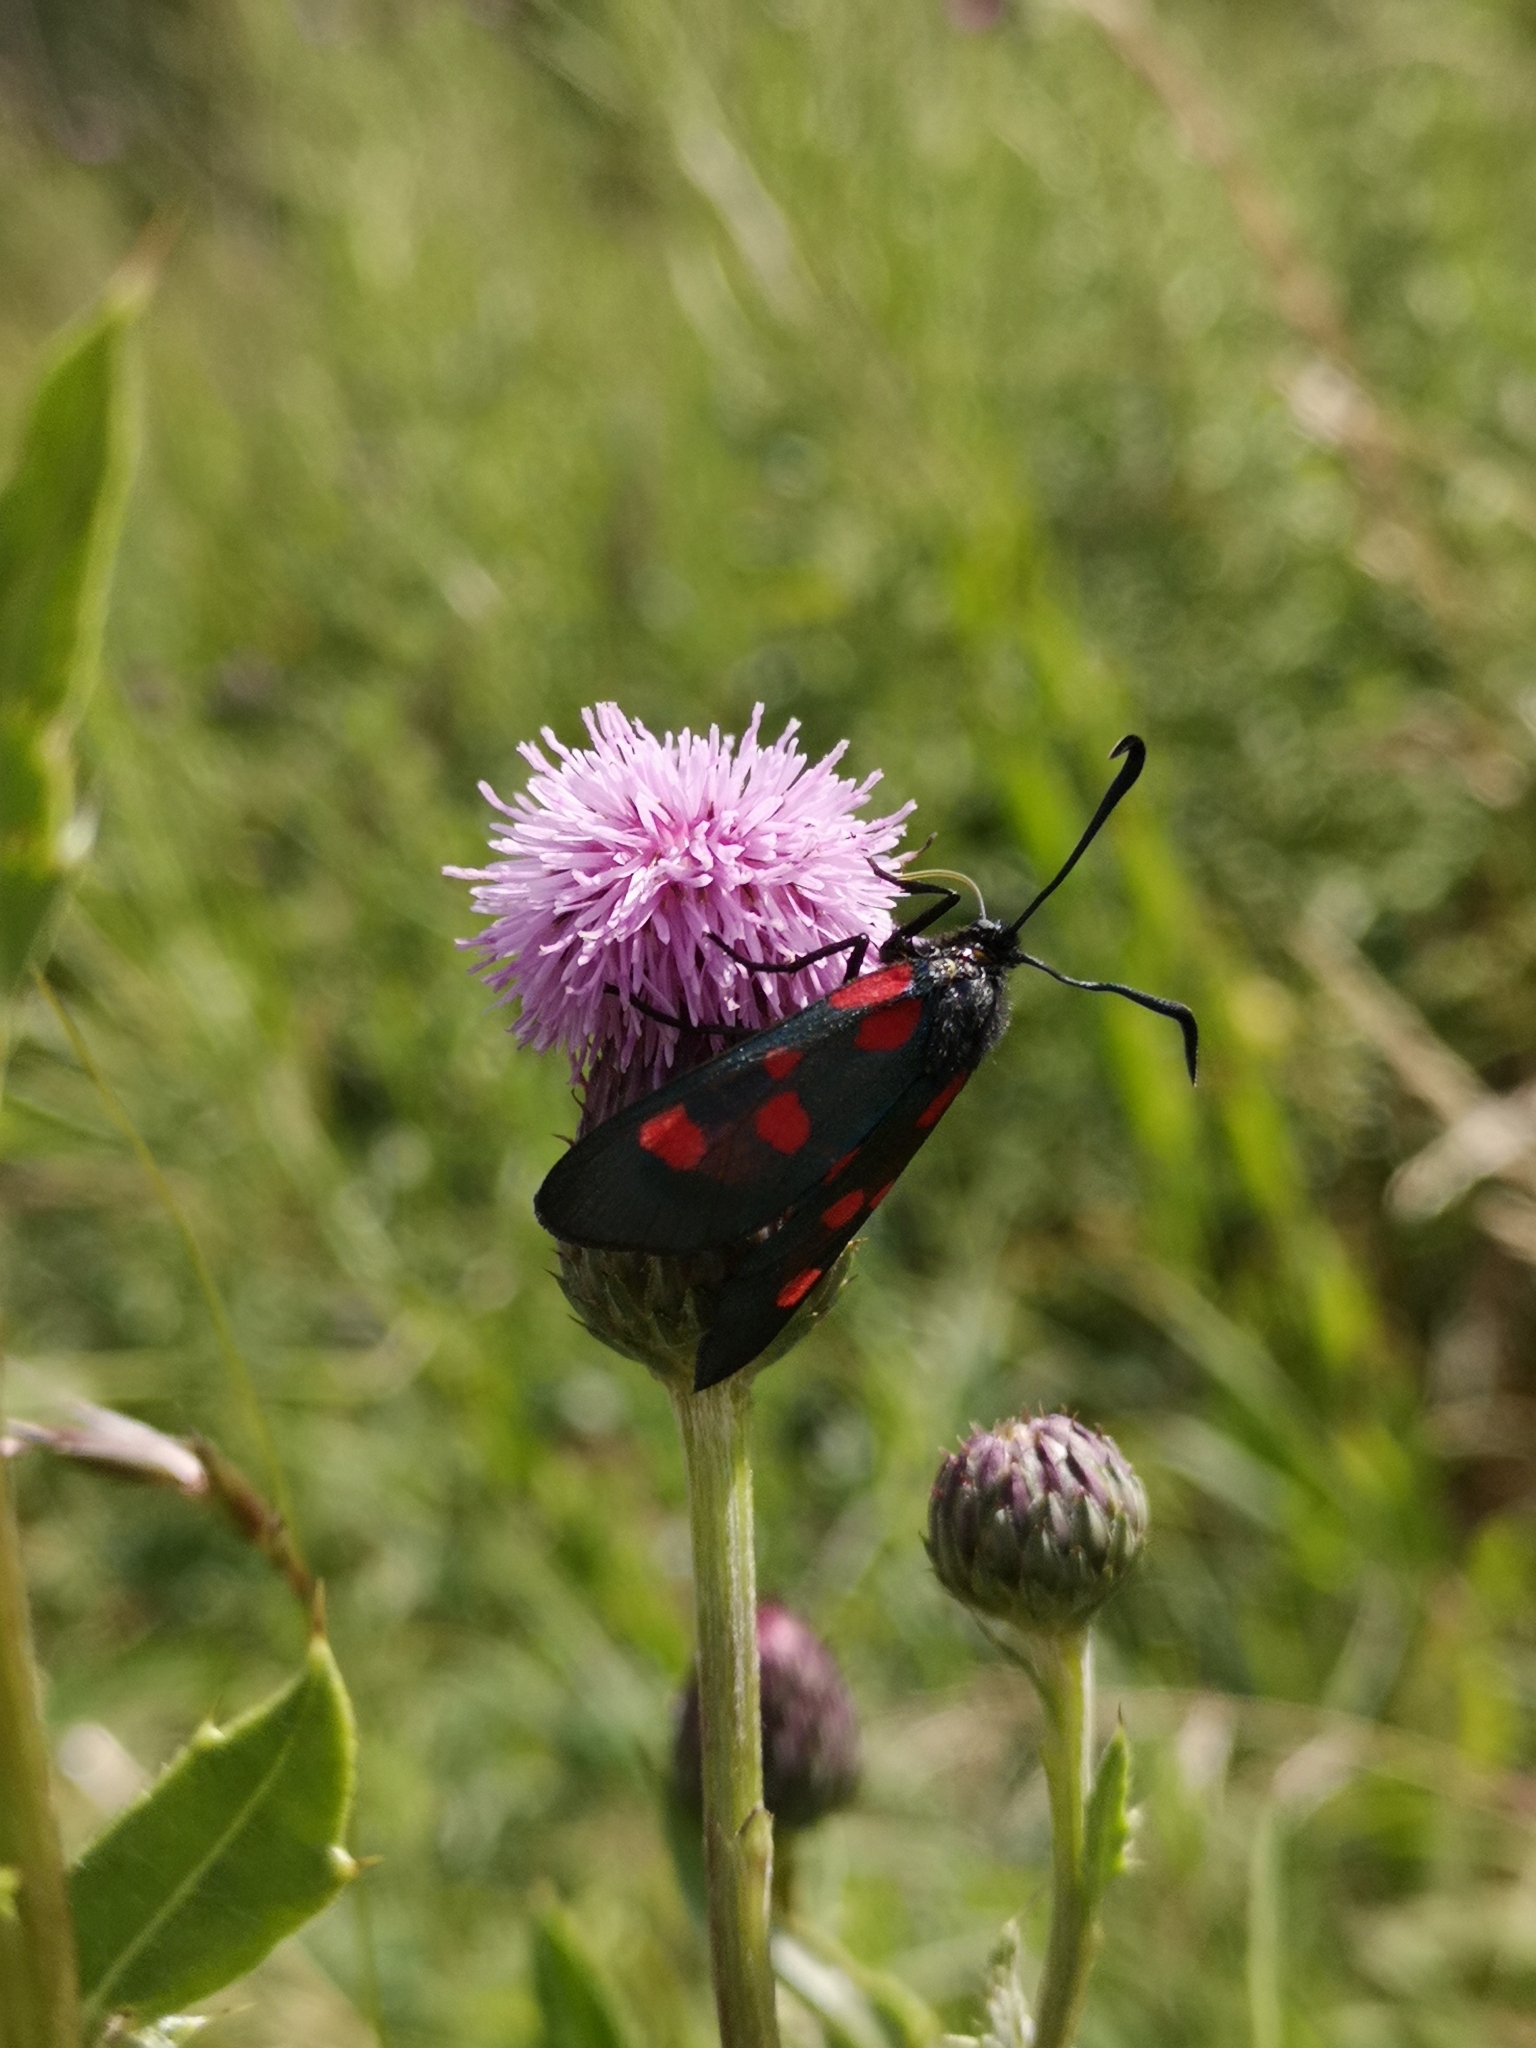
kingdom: Animalia
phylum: Arthropoda
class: Insecta
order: Lepidoptera
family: Zygaenidae
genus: Zygaena
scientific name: Zygaena lonicerae
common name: Narrow-bordered five-spot burnet
